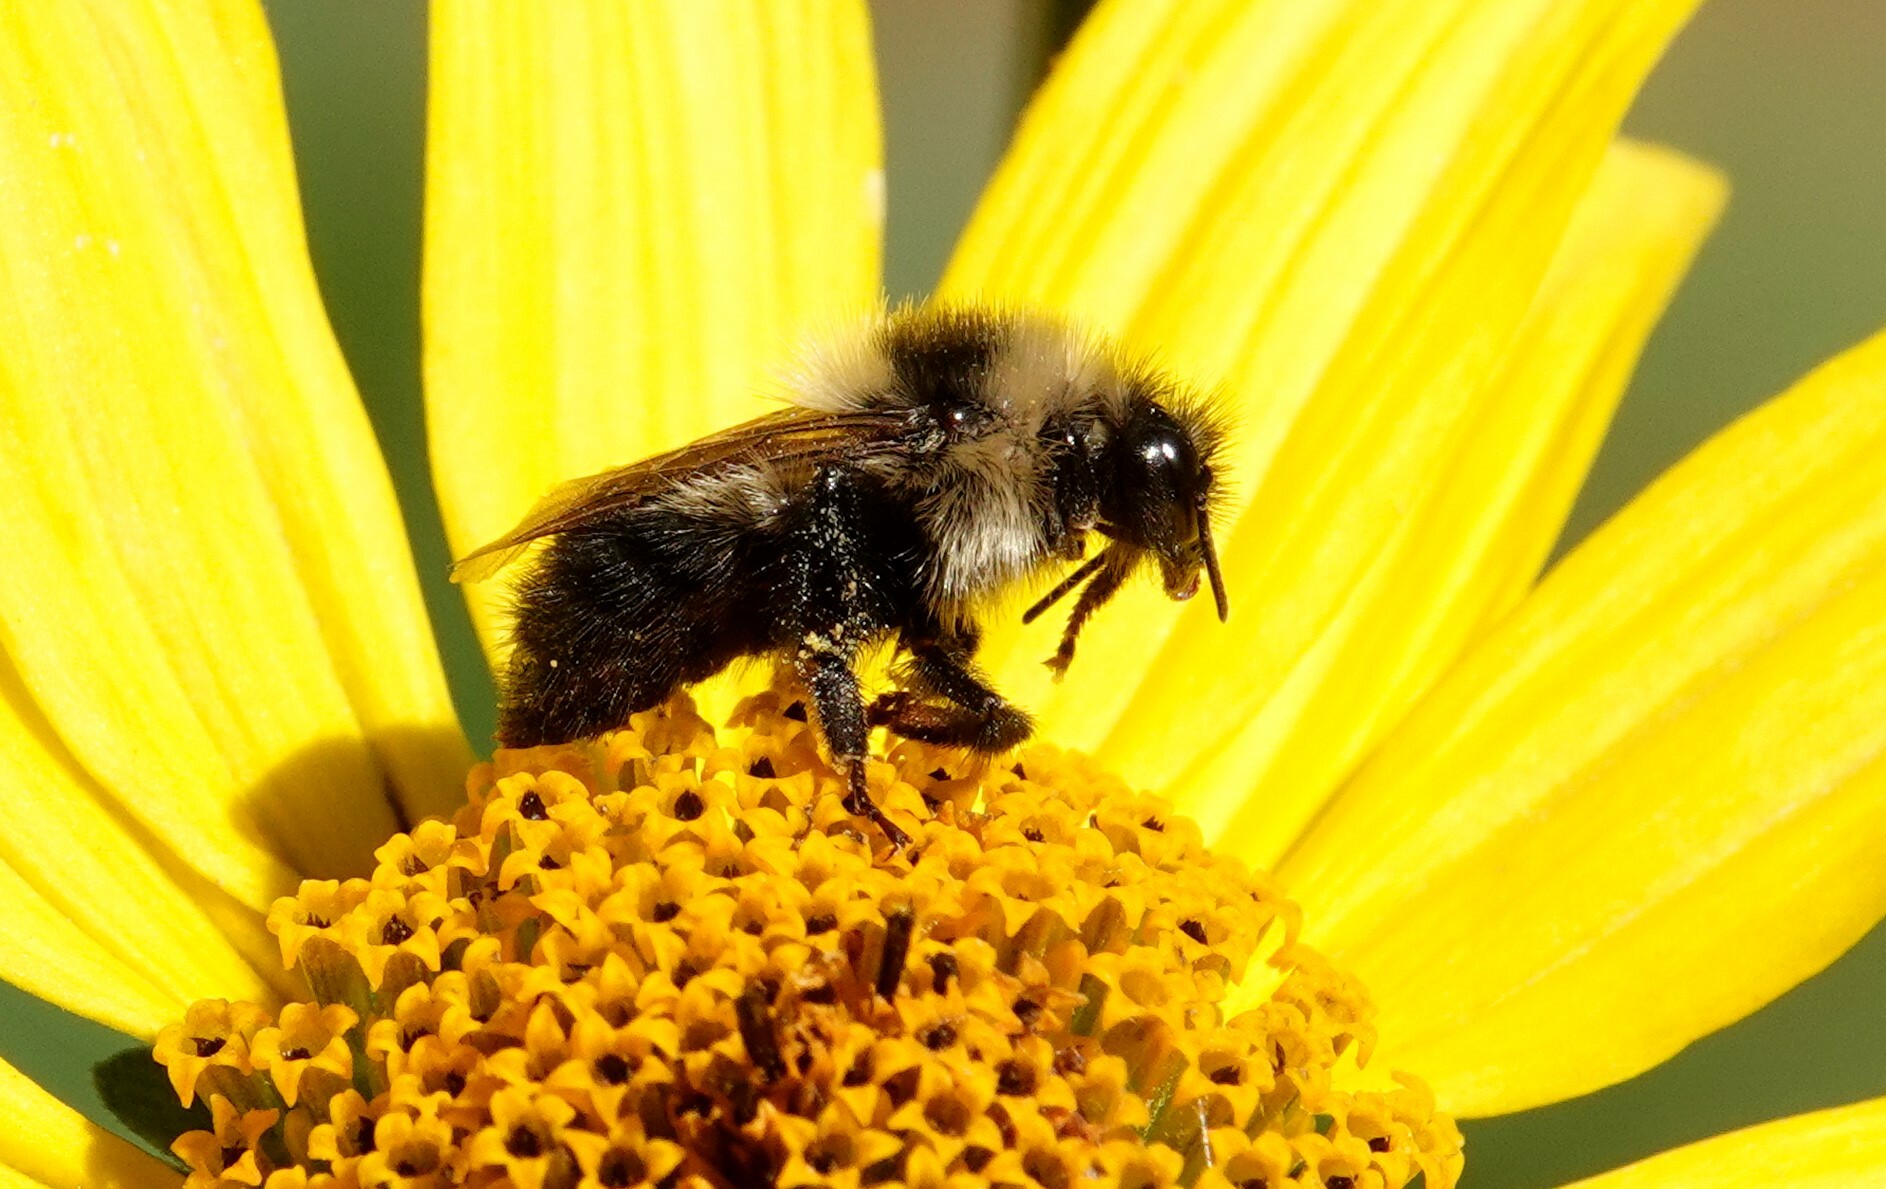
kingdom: Animalia
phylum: Arthropoda
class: Insecta
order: Hymenoptera
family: Apidae
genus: Bombus
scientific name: Bombus rufocinctus
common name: Red-belted bumble bee
